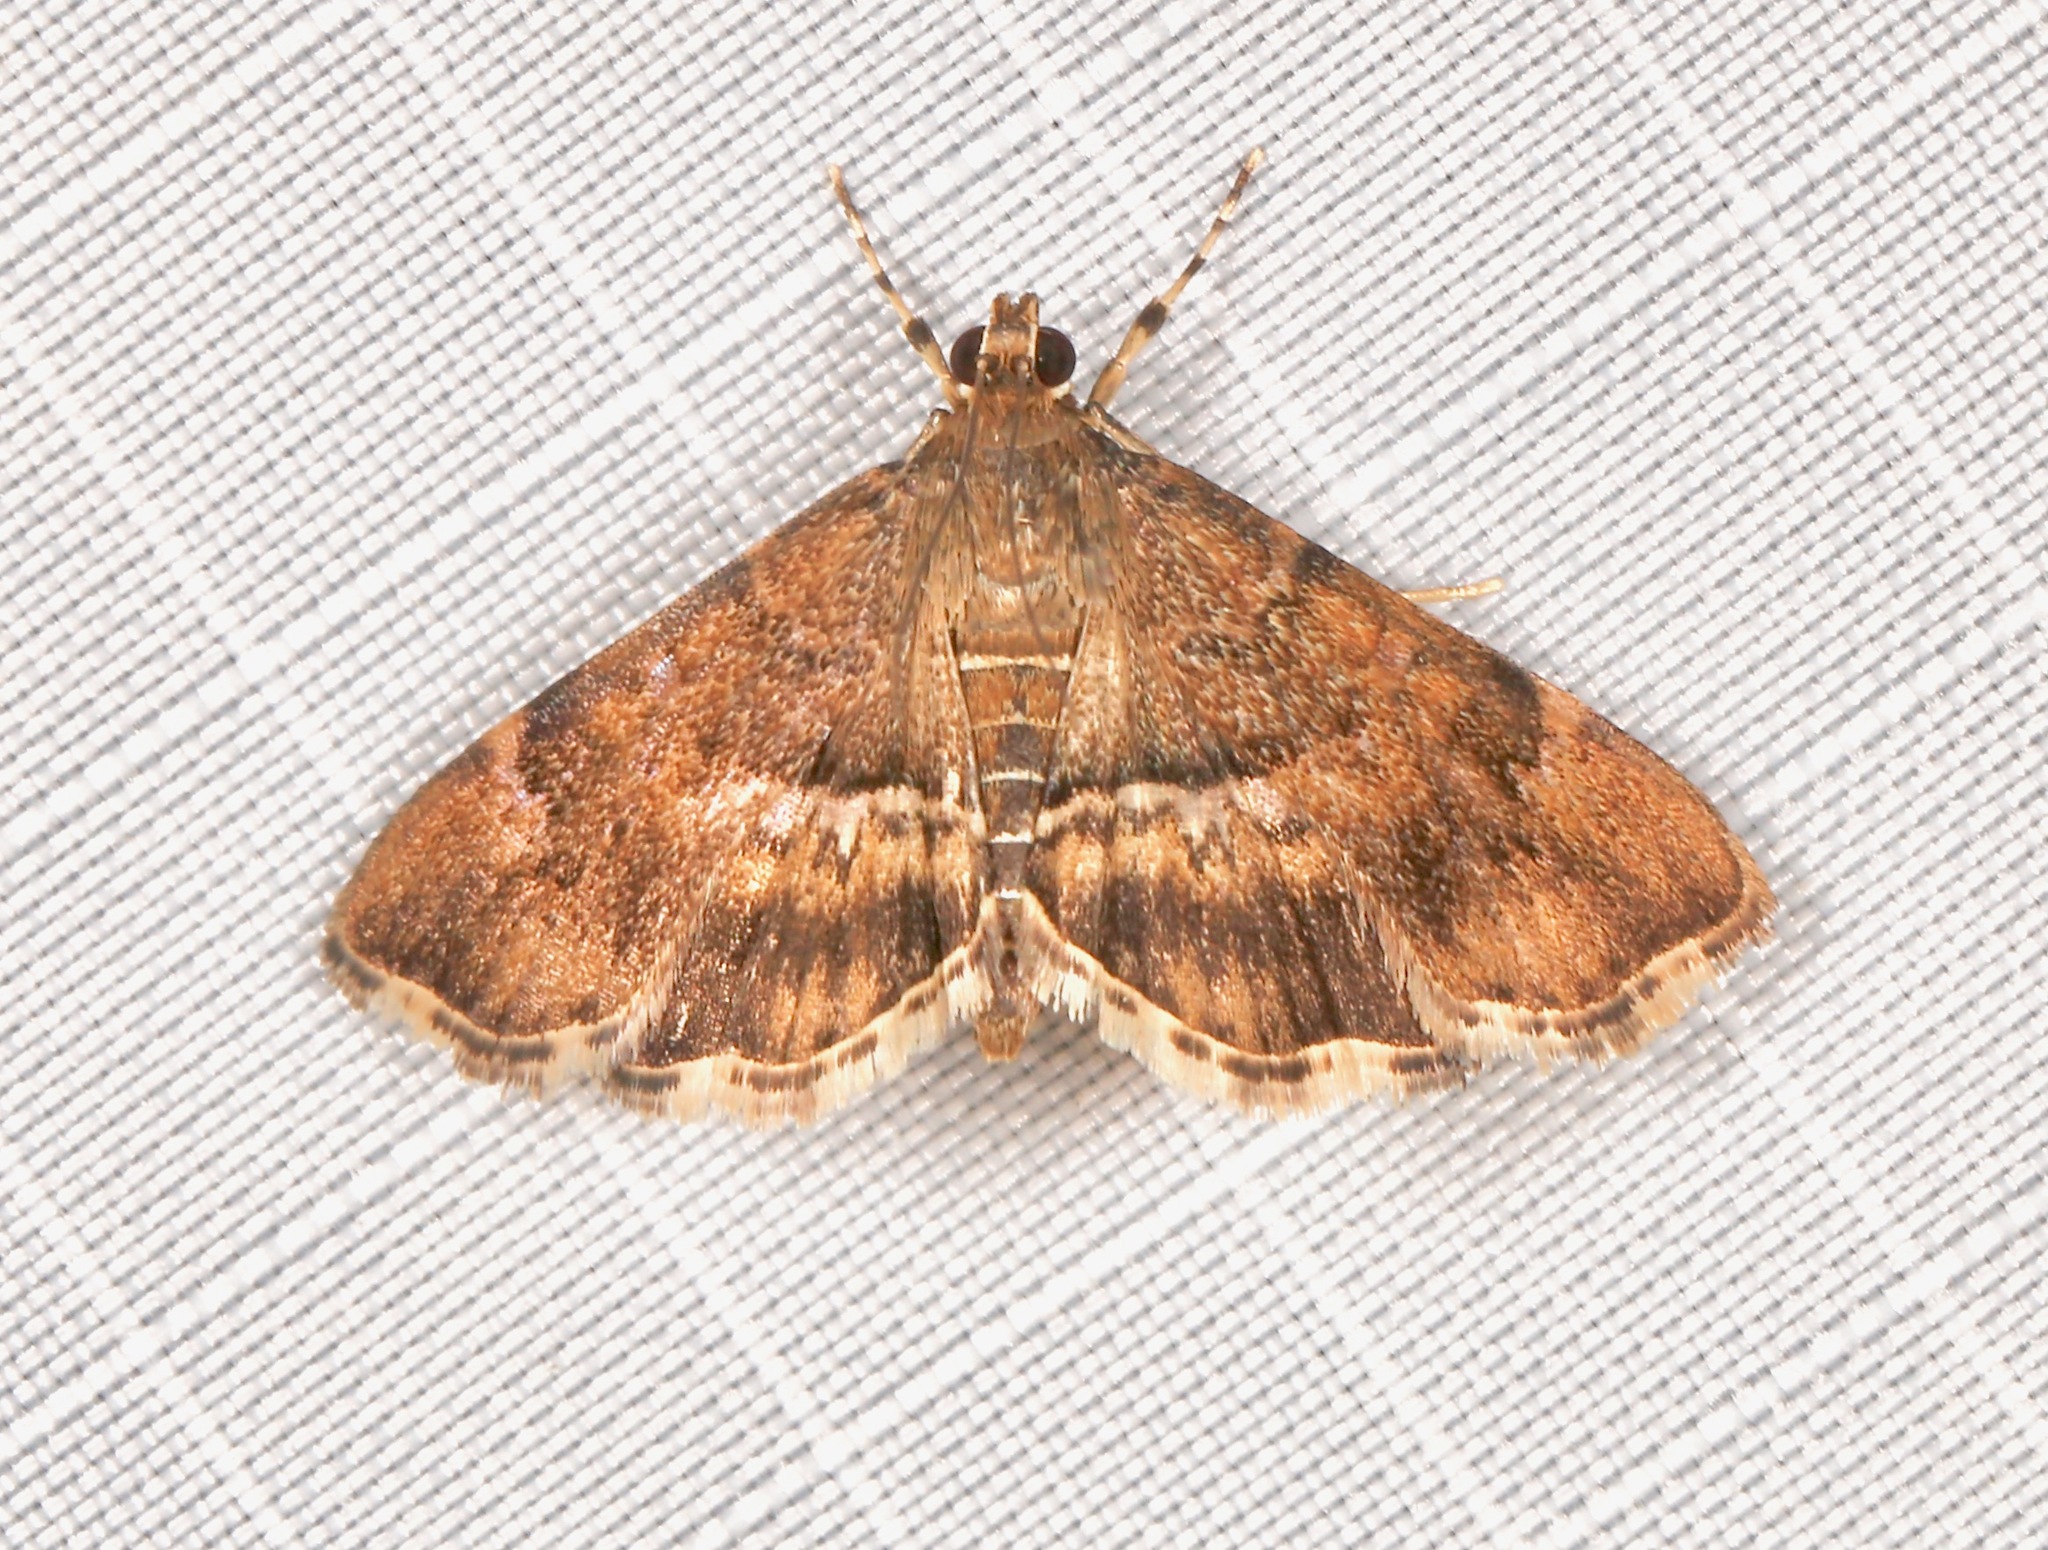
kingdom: Animalia
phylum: Arthropoda
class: Insecta
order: Lepidoptera
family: Crambidae
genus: Hymenia
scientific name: Hymenia perspectalis
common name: Spotted beet webworm
